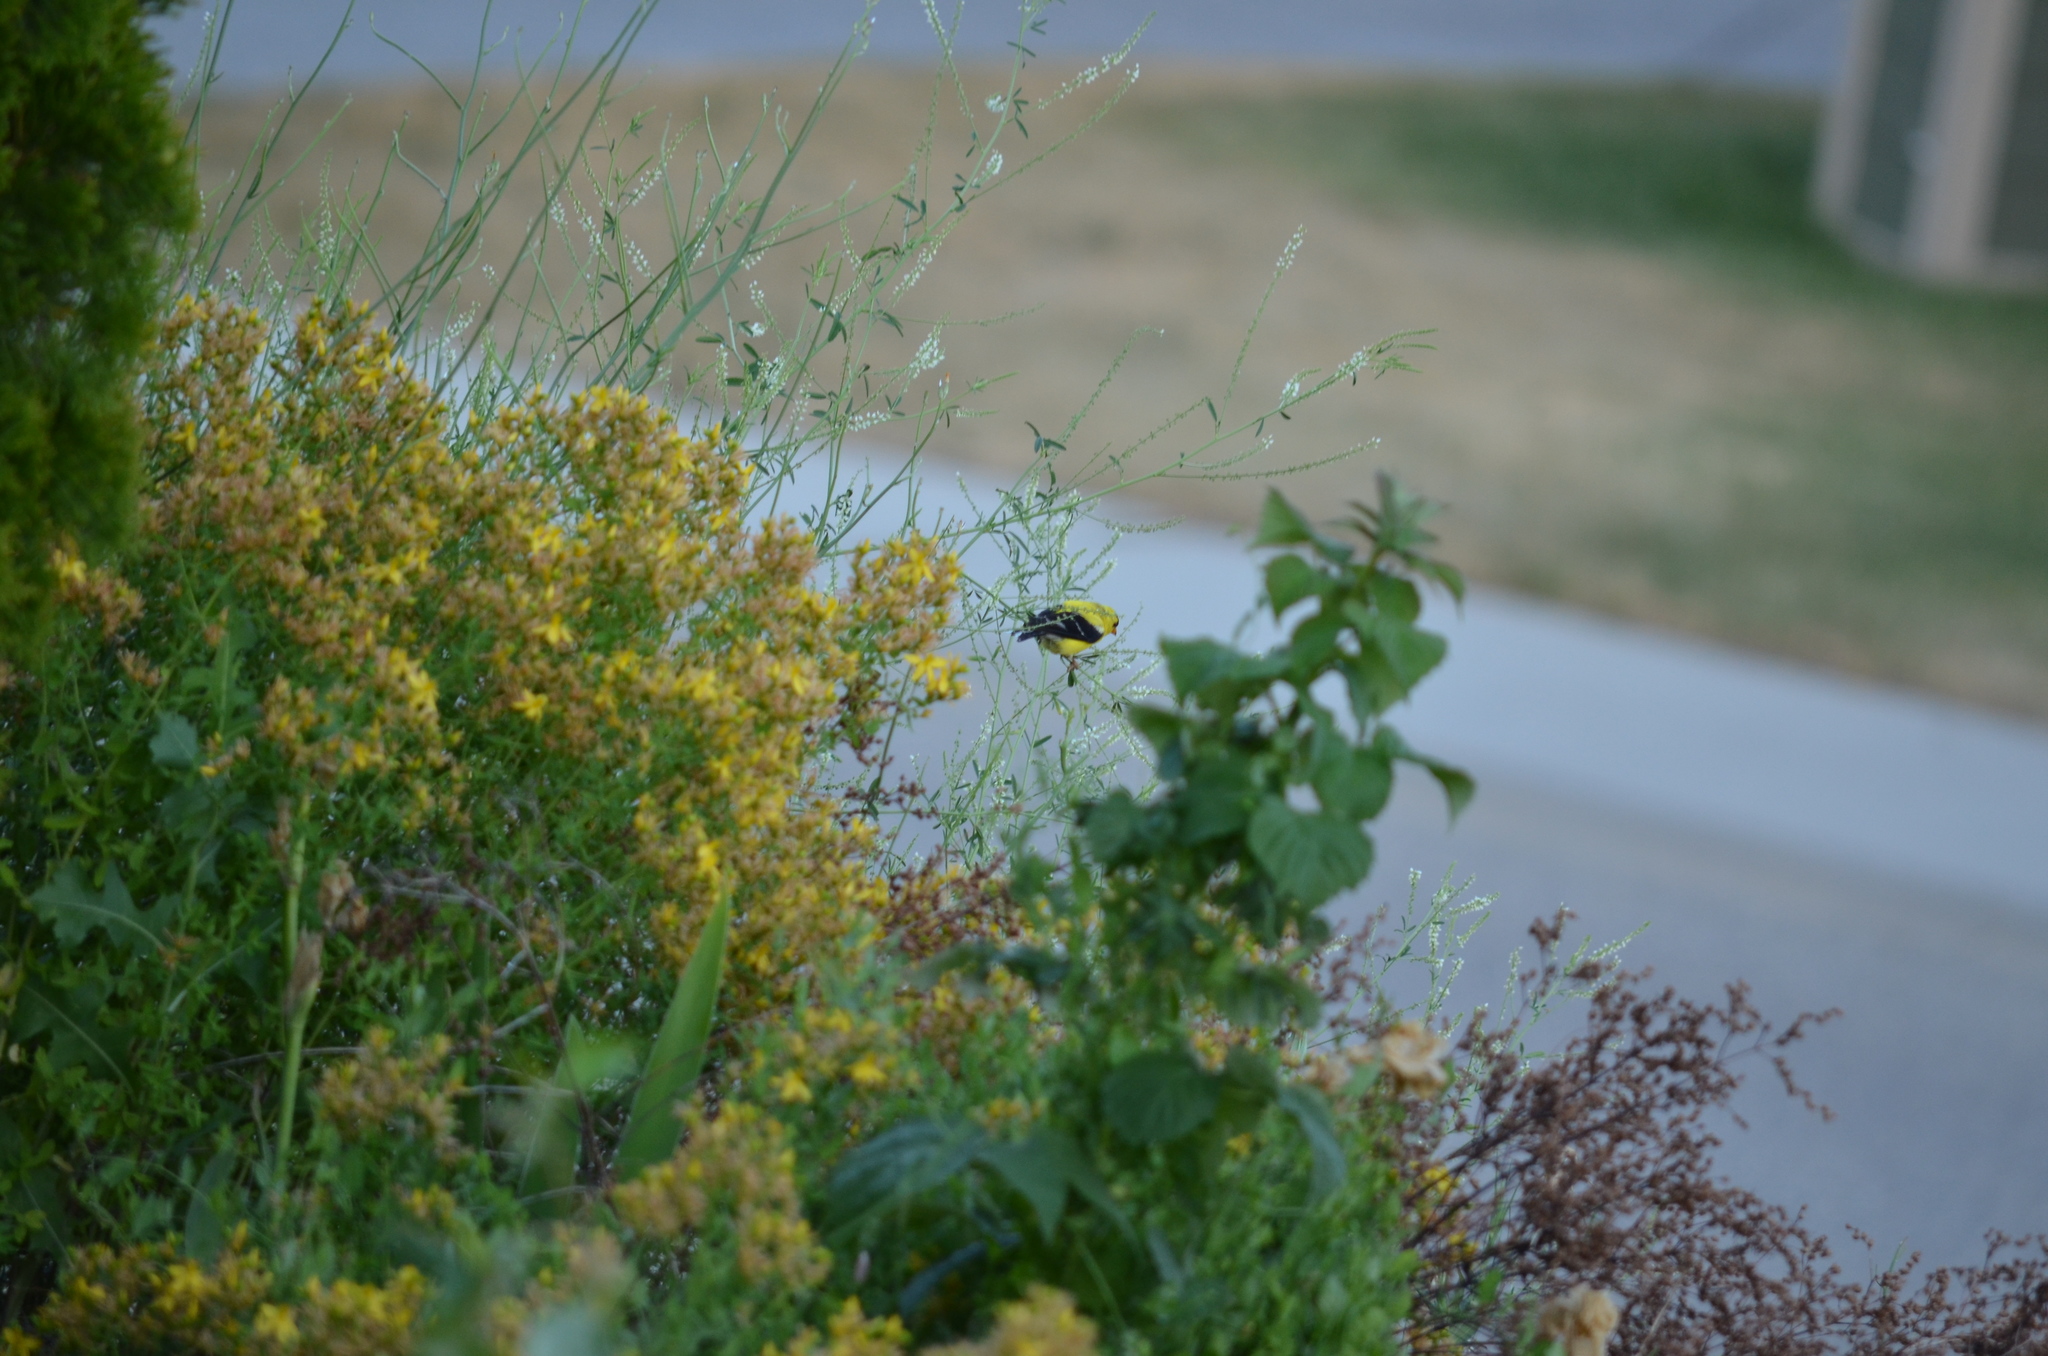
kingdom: Animalia
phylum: Chordata
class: Aves
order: Passeriformes
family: Fringillidae
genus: Spinus
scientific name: Spinus tristis
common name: American goldfinch
